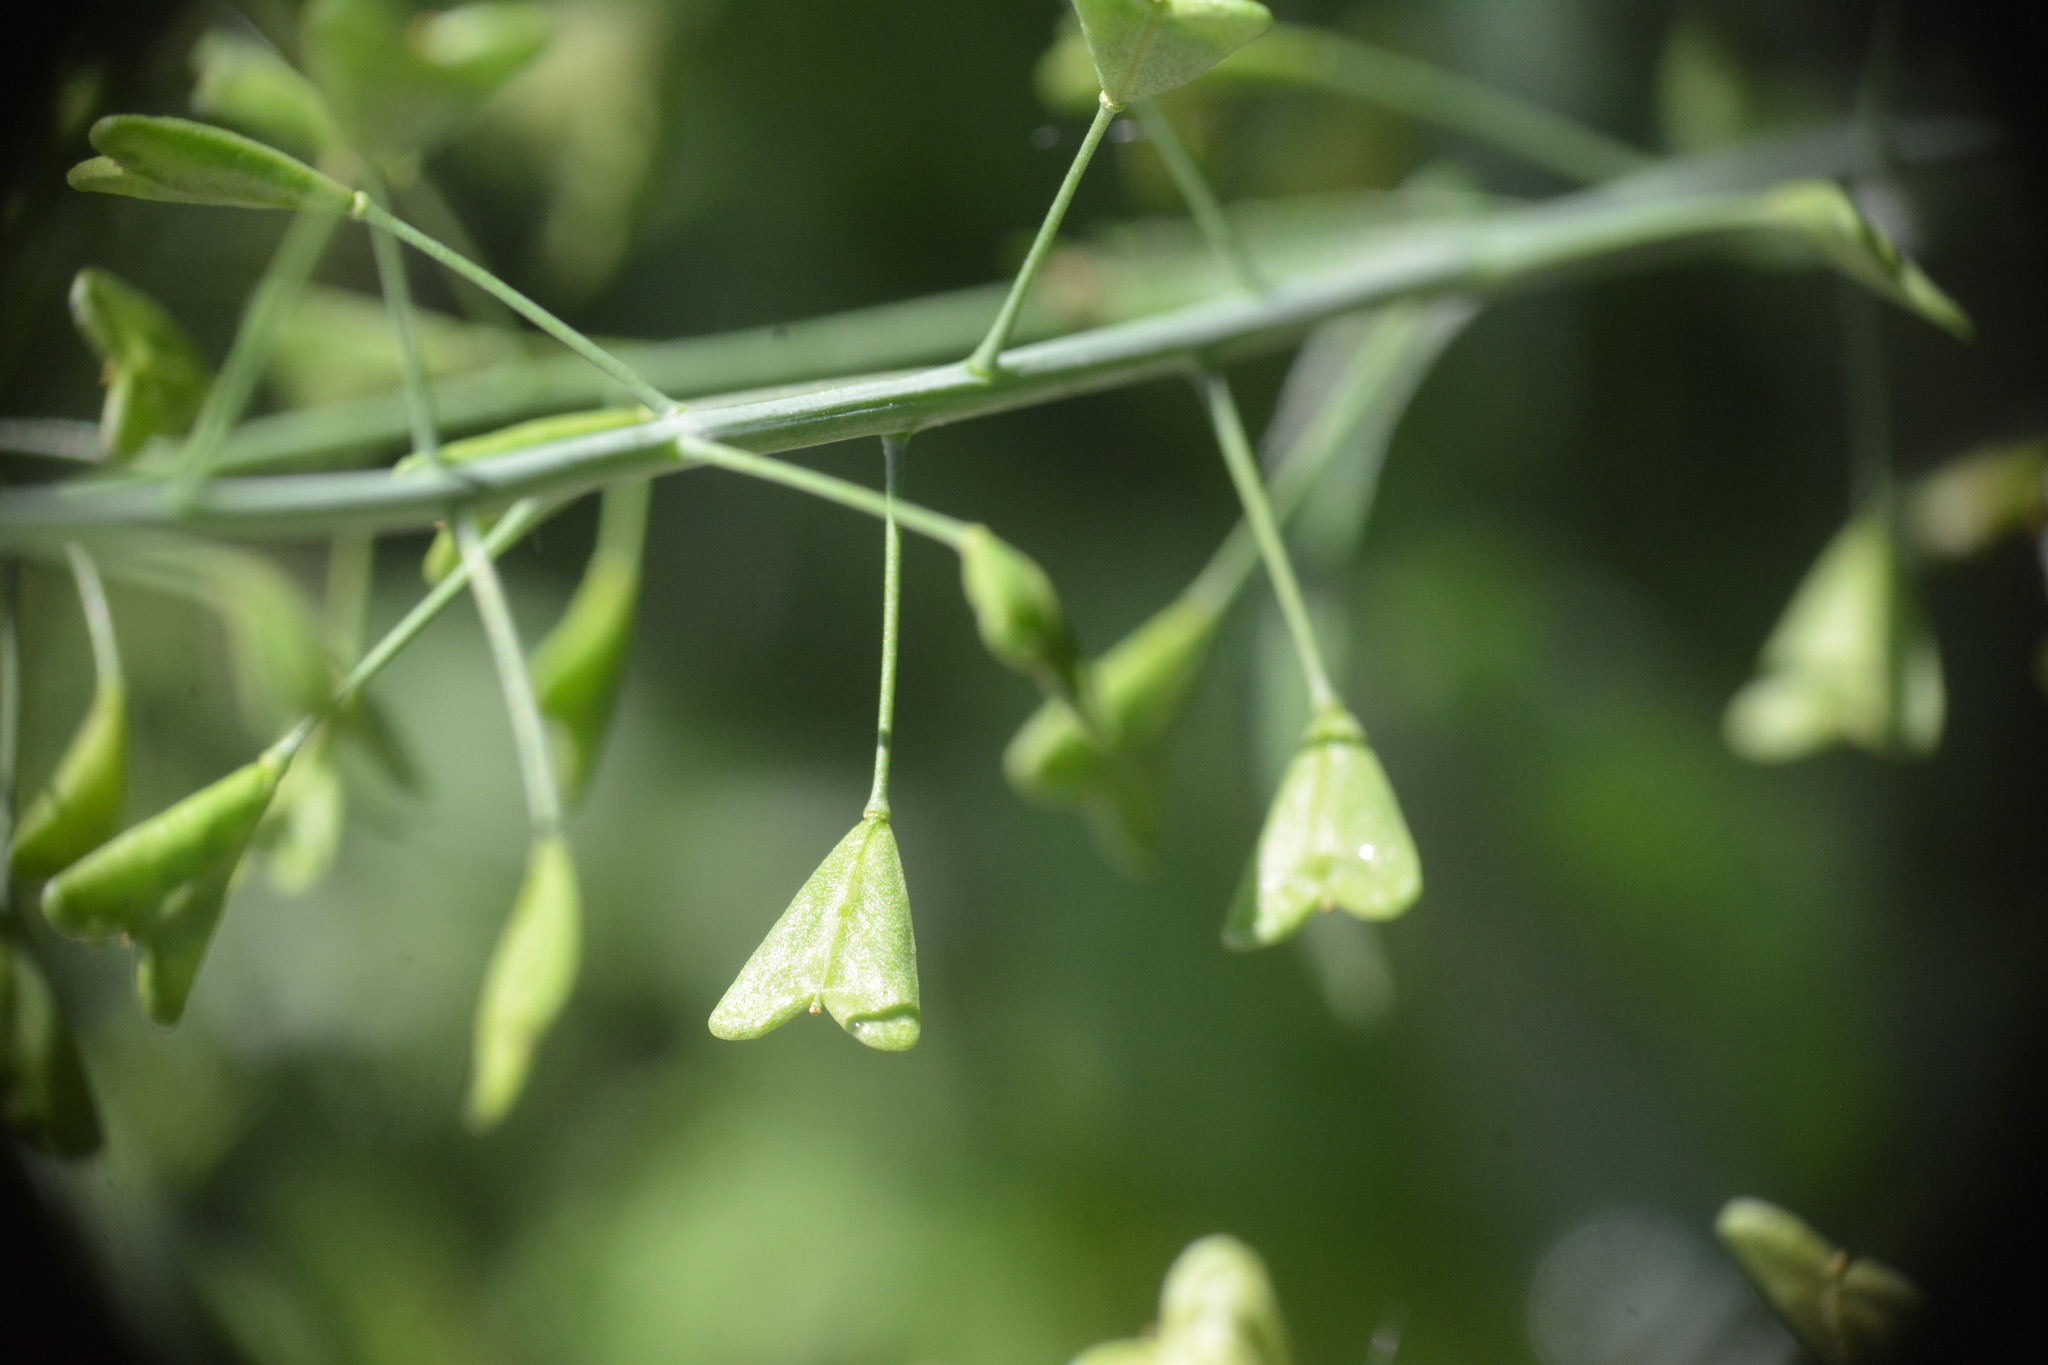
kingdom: Plantae
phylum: Tracheophyta
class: Magnoliopsida
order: Brassicales
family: Brassicaceae
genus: Capsella
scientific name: Capsella bursa-pastoris
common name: Shepherd's purse
